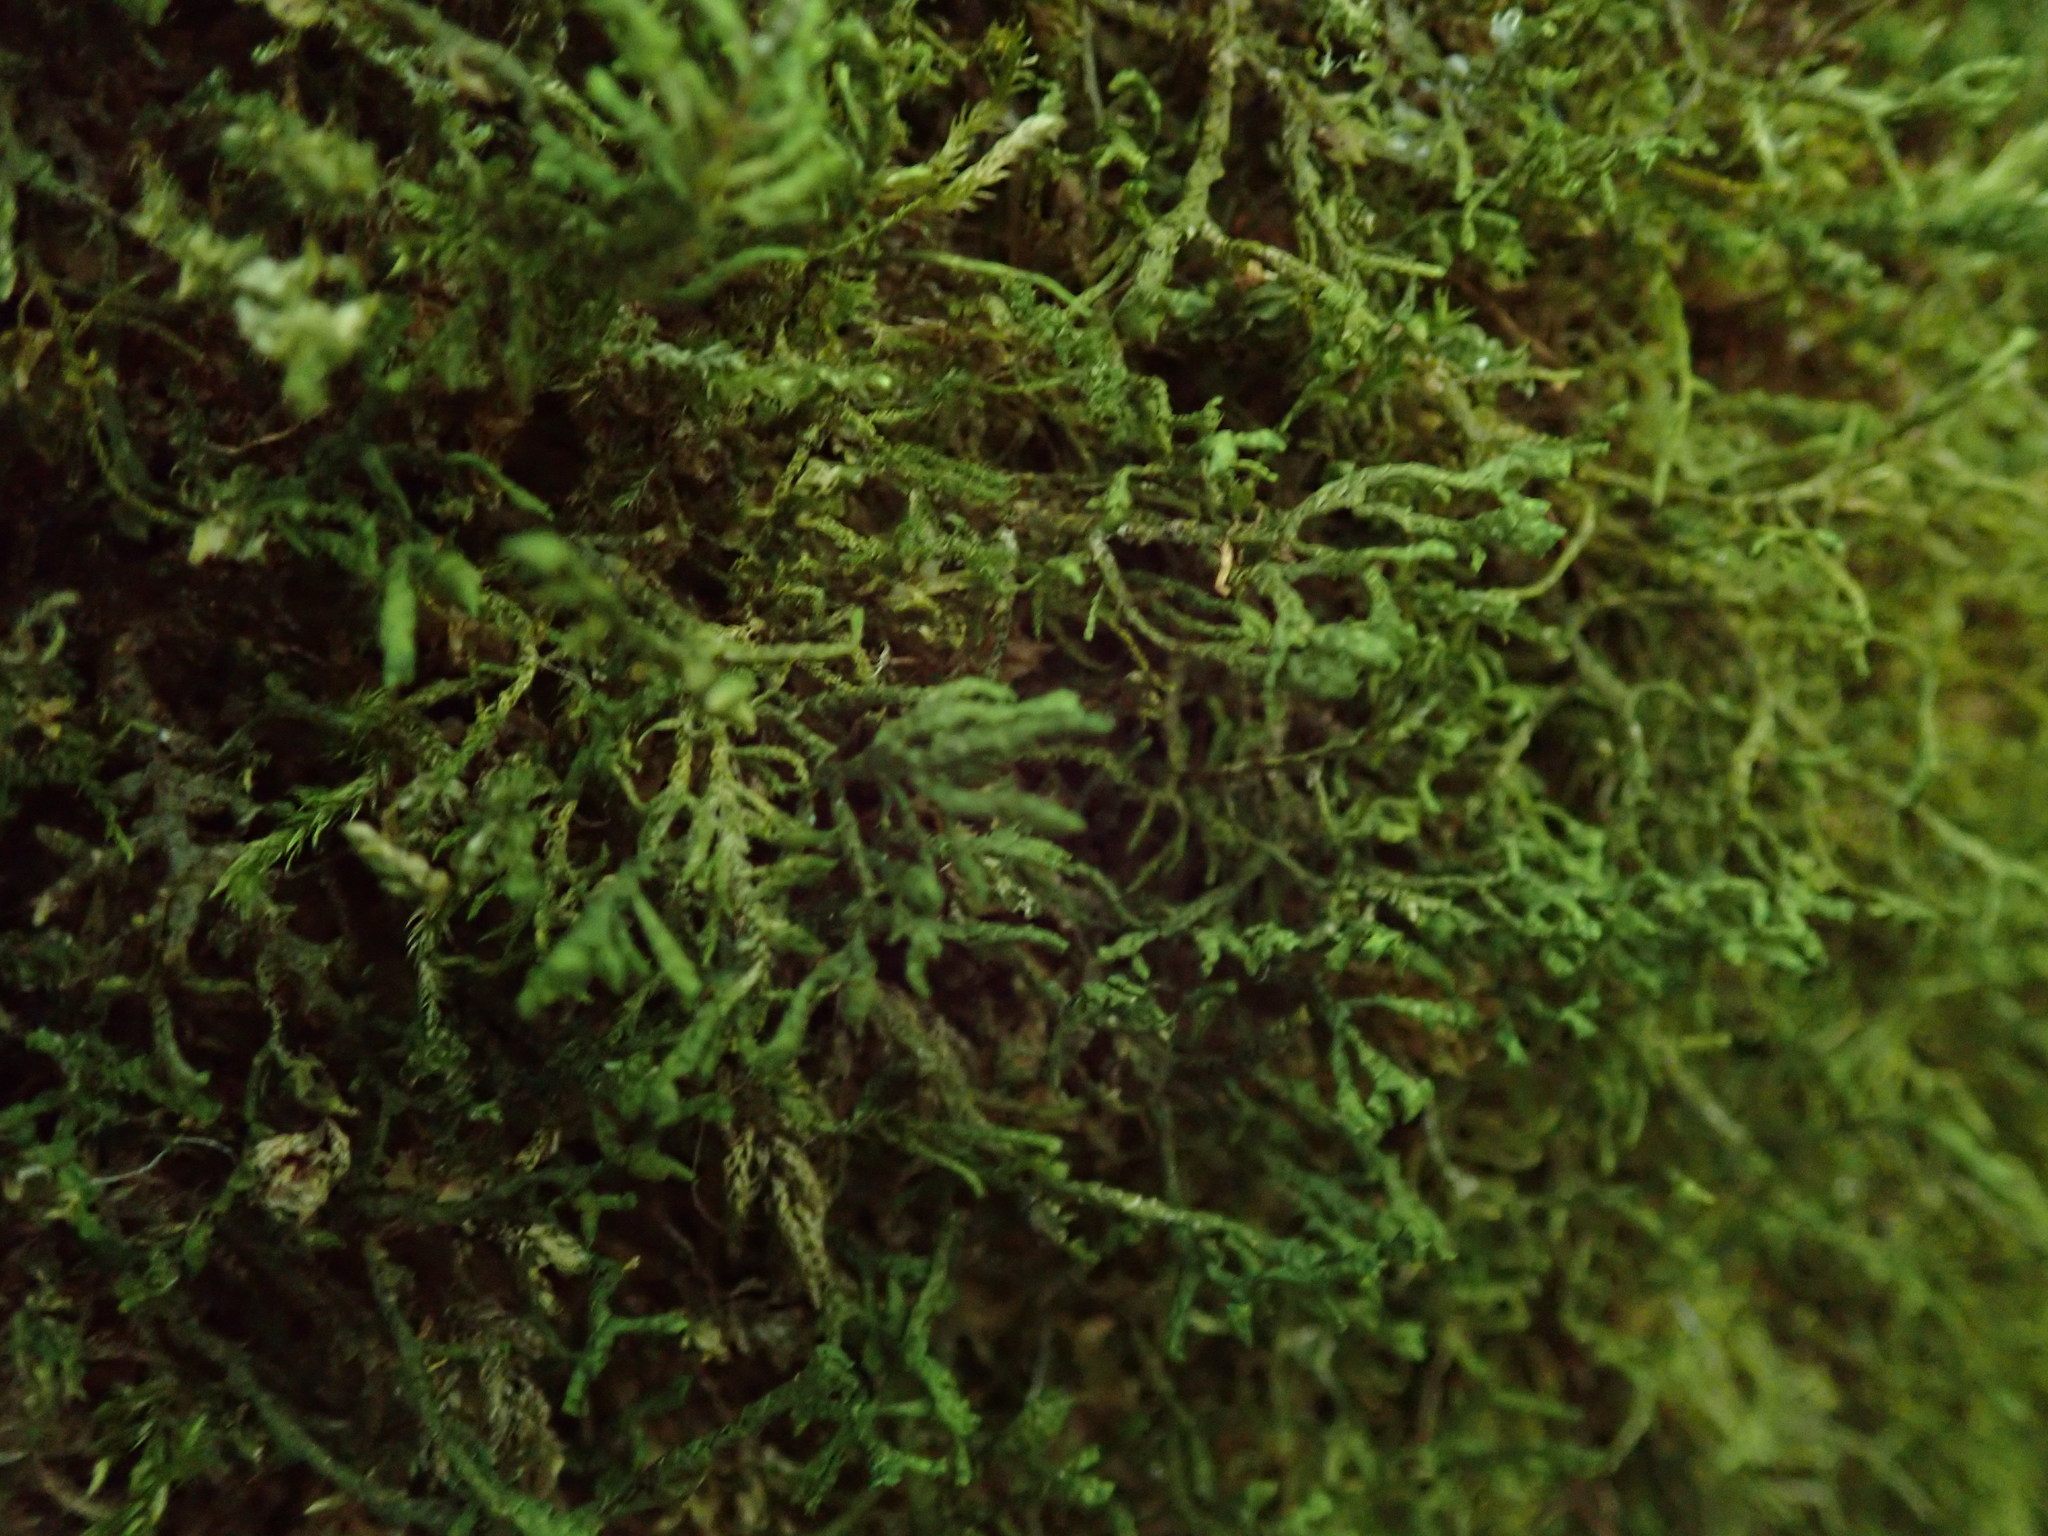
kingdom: Plantae
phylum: Marchantiophyta
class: Jungermanniopsida
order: Porellales
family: Porellaceae
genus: Porella
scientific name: Porella cordaeana
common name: Cliff scalewort
